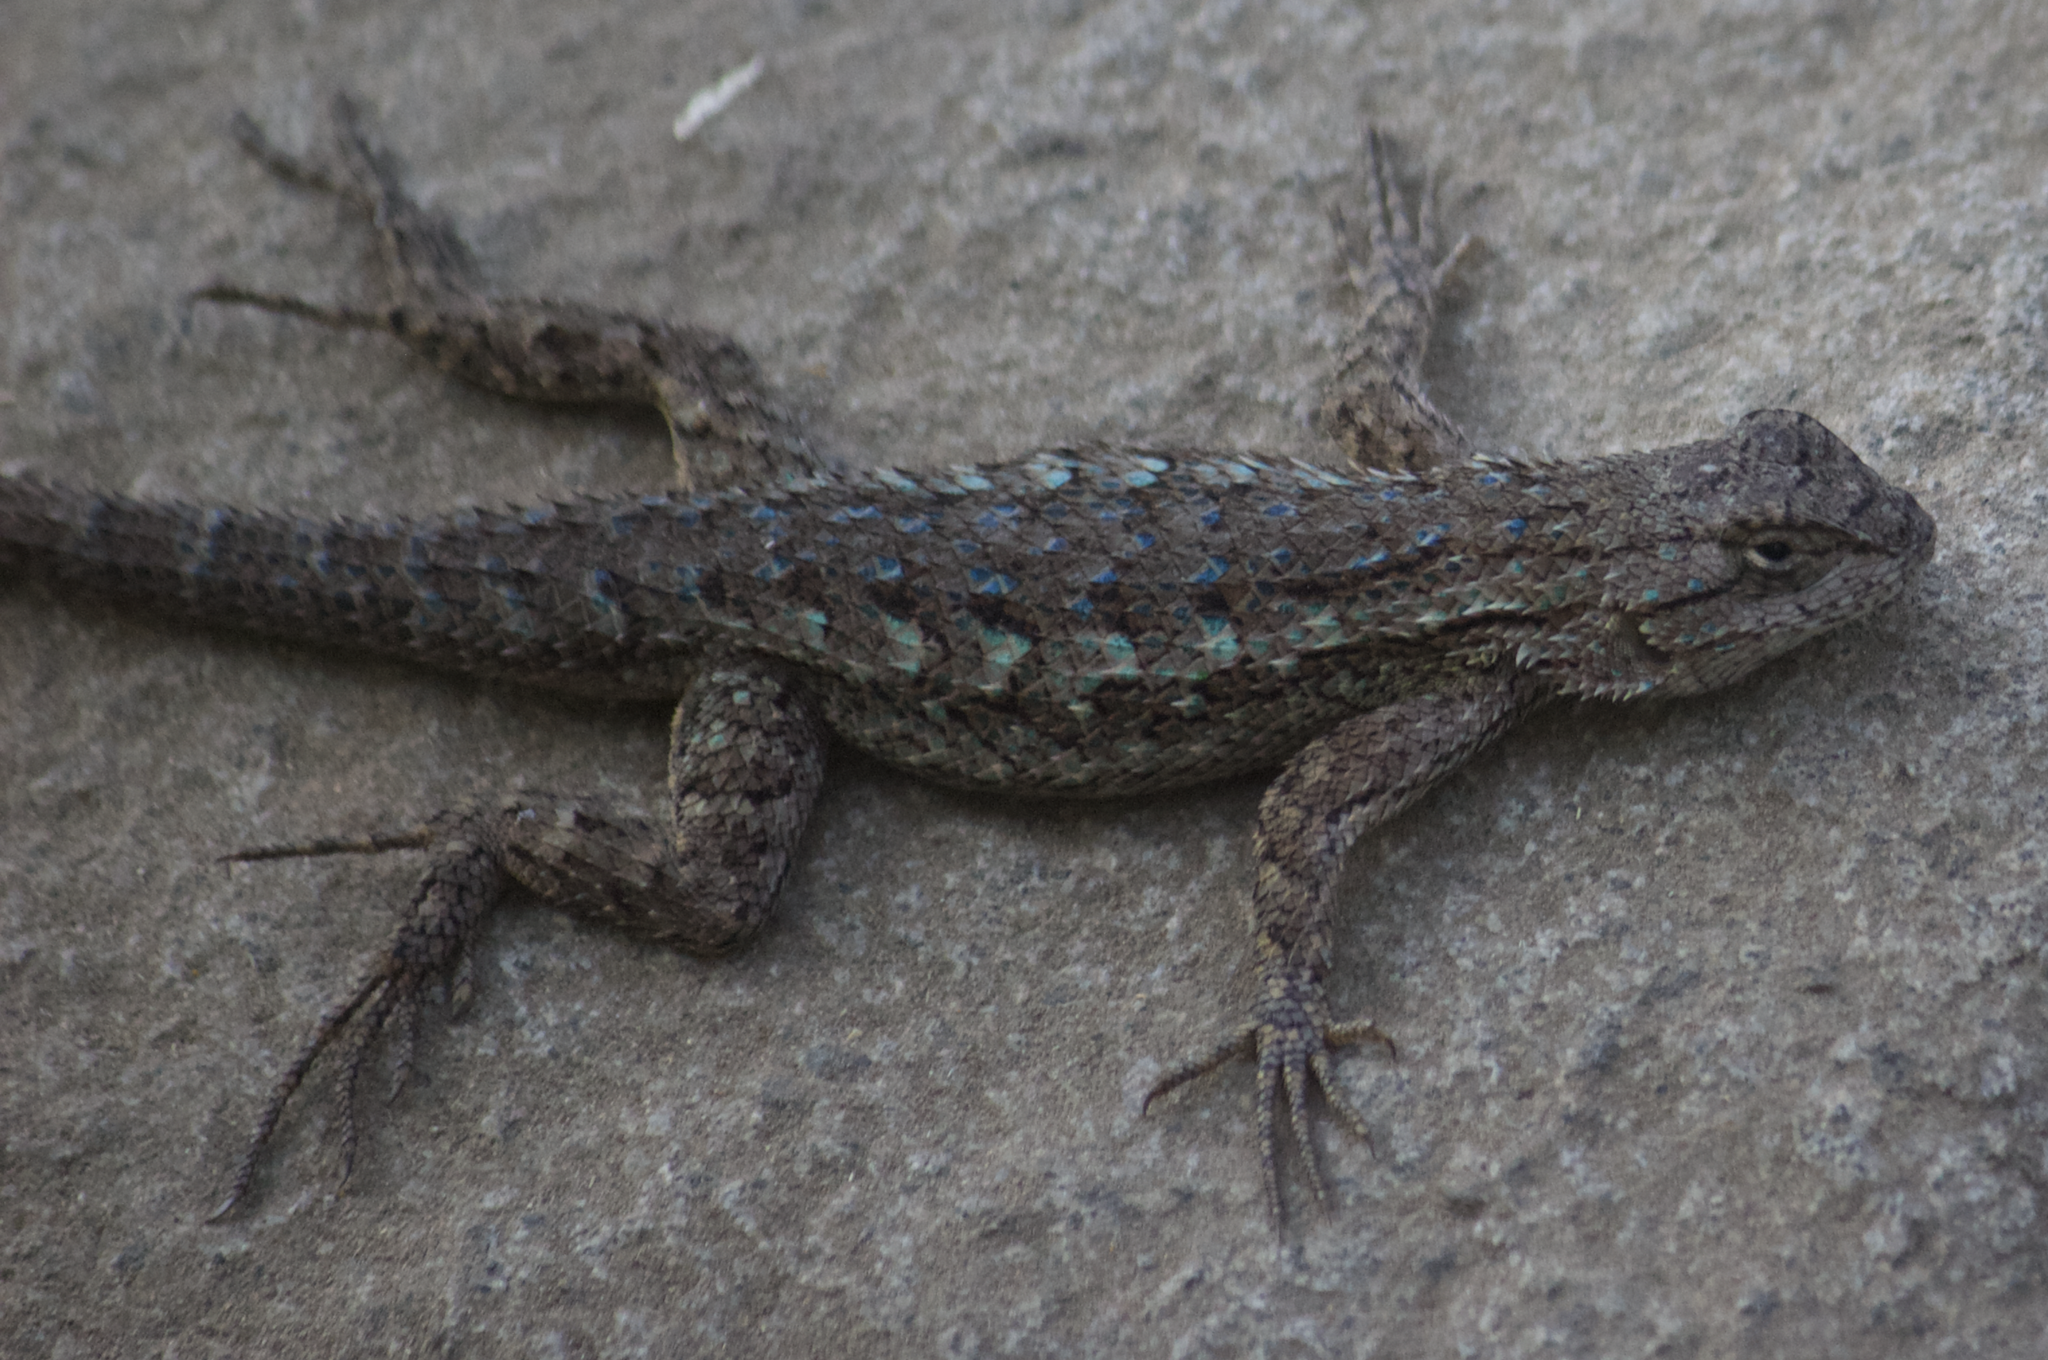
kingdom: Animalia
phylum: Chordata
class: Squamata
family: Phrynosomatidae
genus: Sceloporus
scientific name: Sceloporus occidentalis
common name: Western fence lizard
